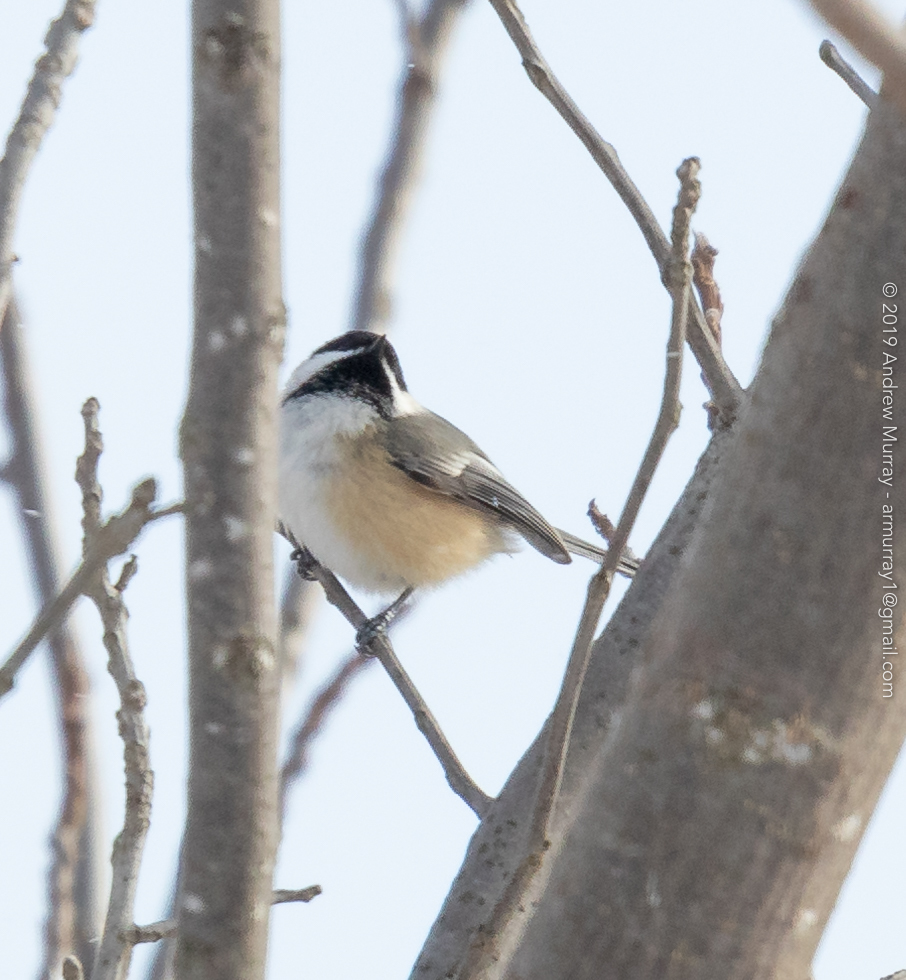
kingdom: Animalia
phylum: Chordata
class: Aves
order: Passeriformes
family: Paridae
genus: Poecile
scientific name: Poecile atricapillus
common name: Black-capped chickadee
